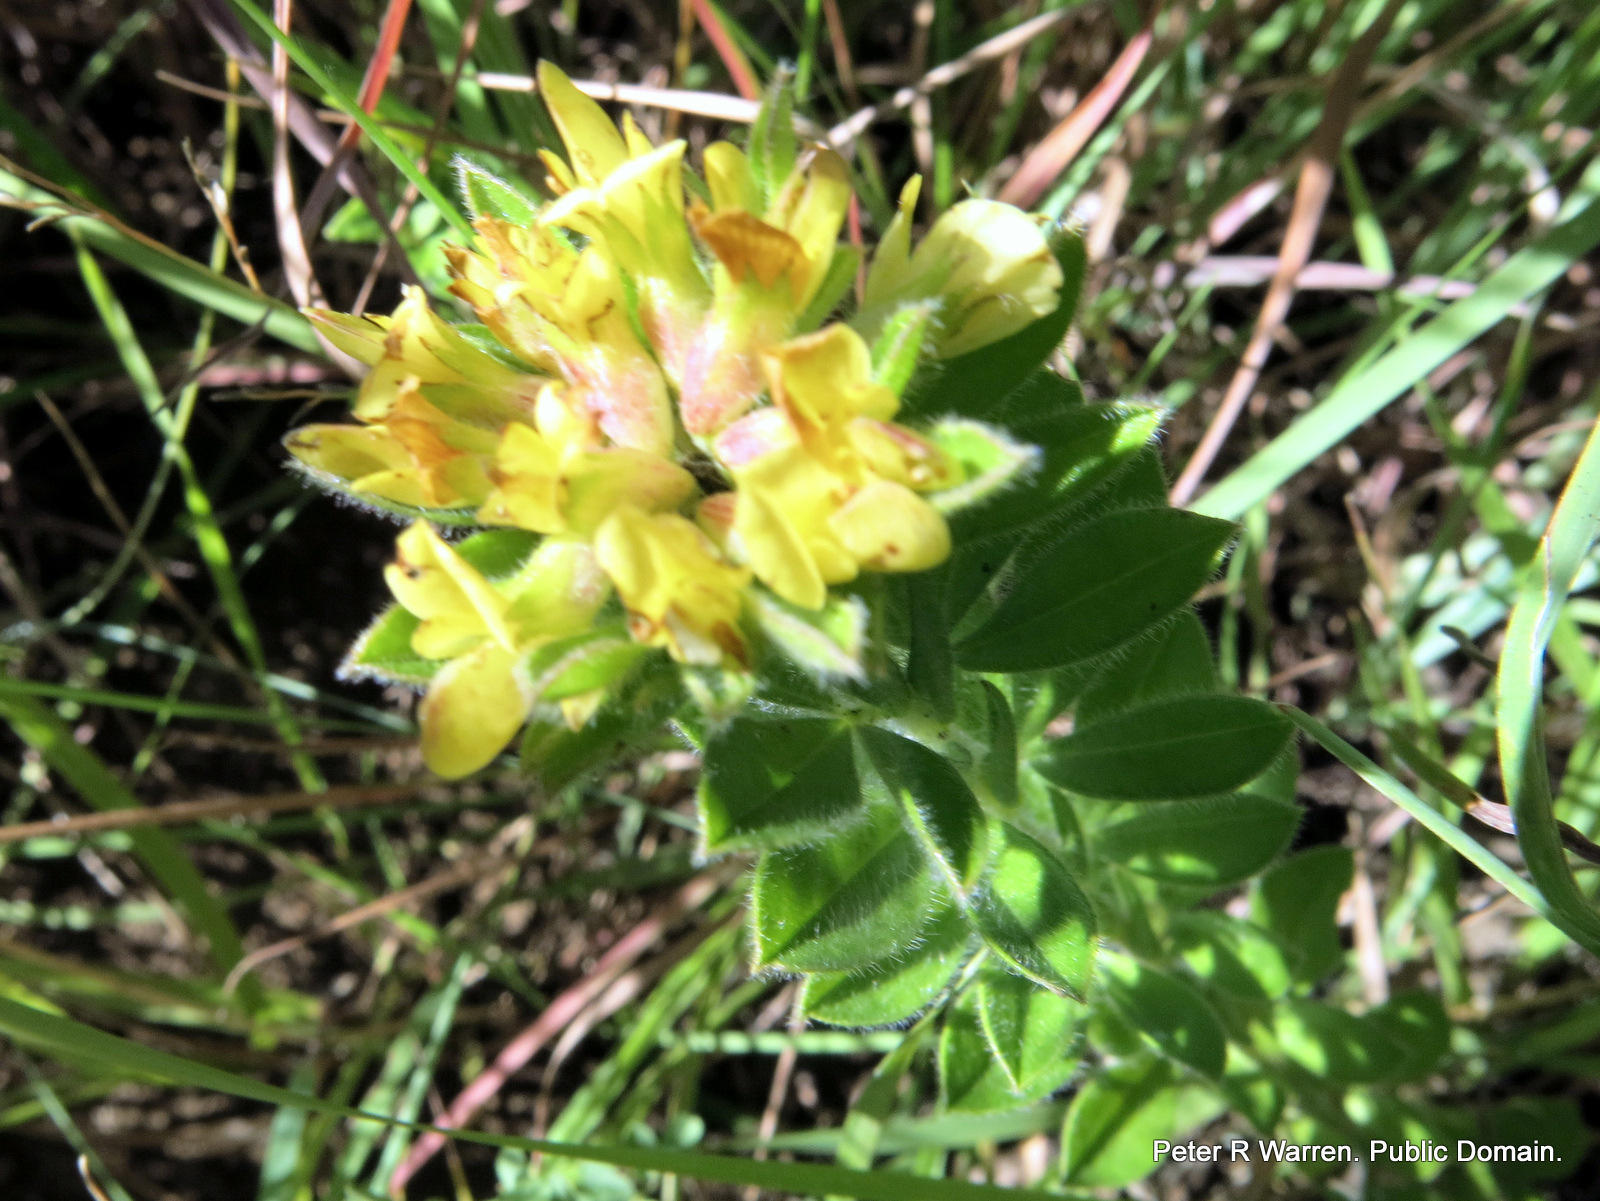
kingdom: Plantae
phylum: Tracheophyta
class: Magnoliopsida
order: Fabales
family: Fabaceae
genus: Leobordea
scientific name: Leobordea pulchra
